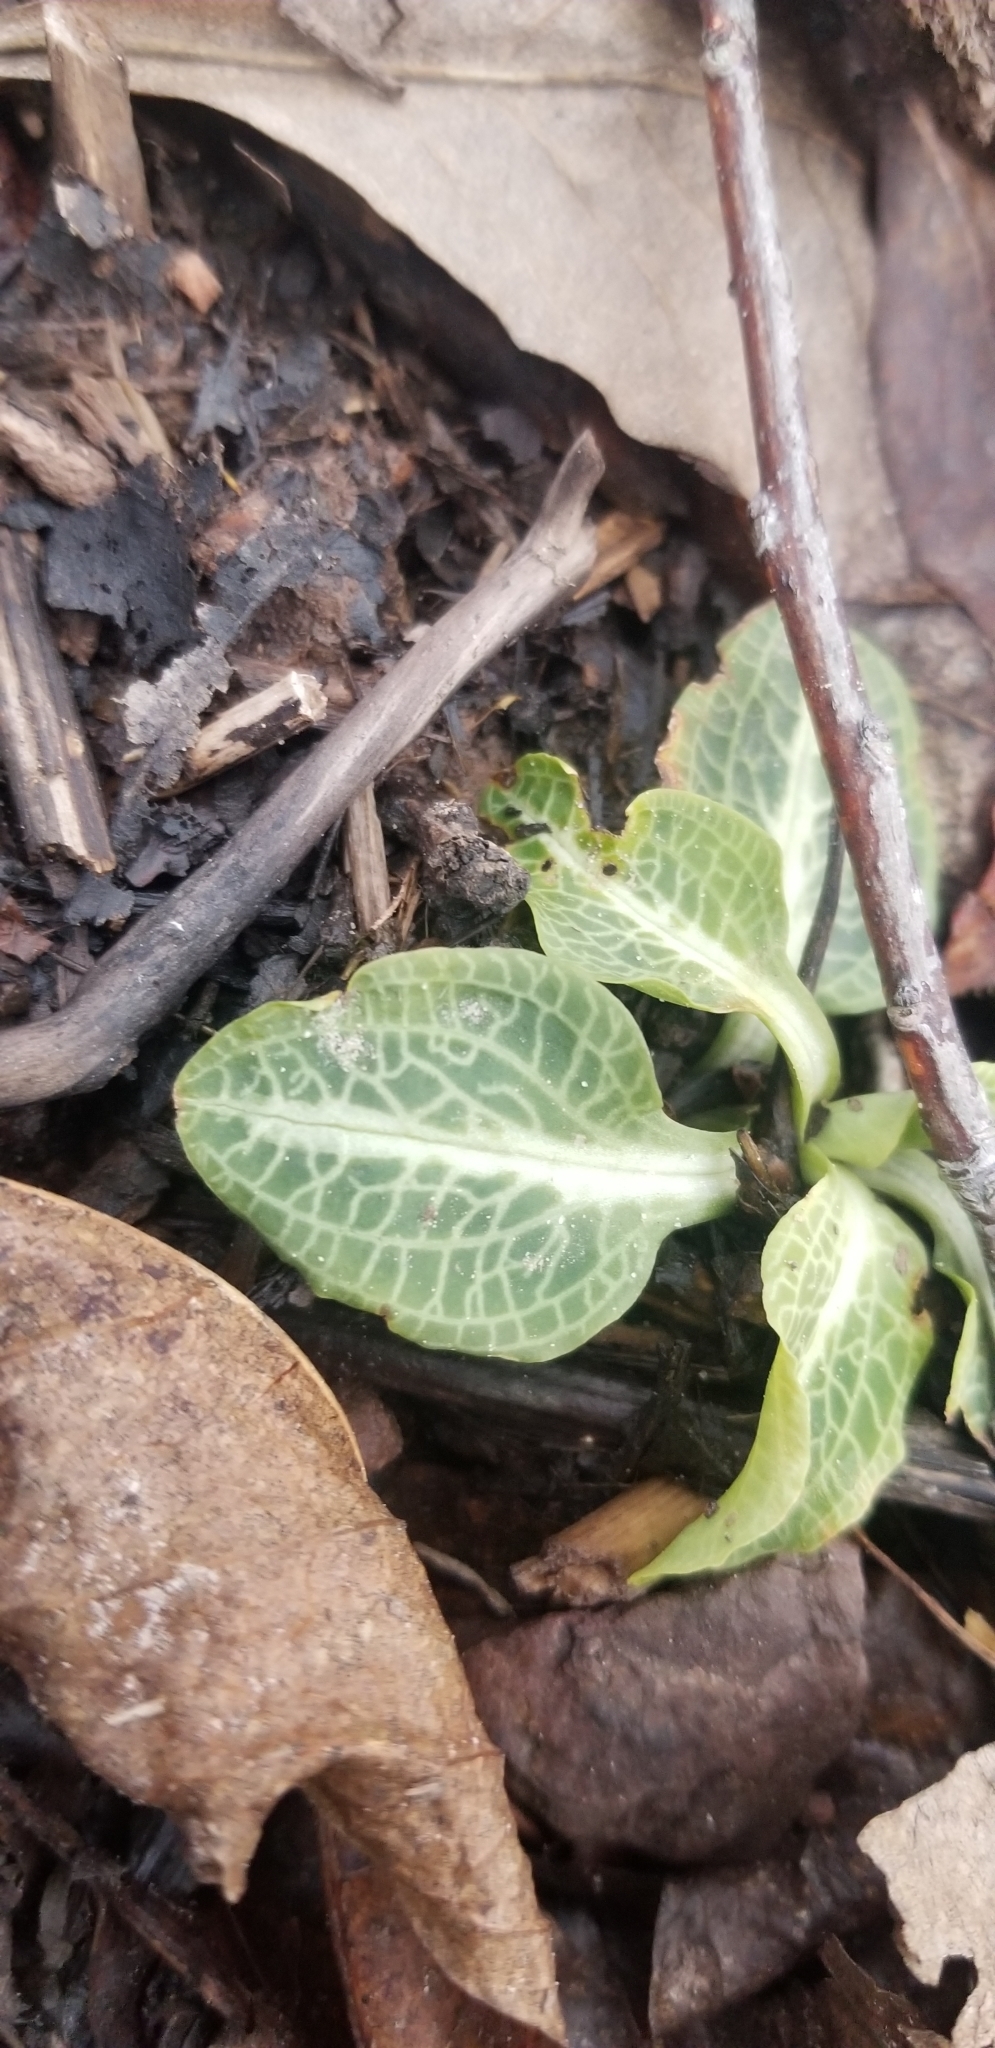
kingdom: Plantae
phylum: Tracheophyta
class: Liliopsida
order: Asparagales
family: Orchidaceae
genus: Goodyera
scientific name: Goodyera pubescens
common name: Downy rattlesnake-plantain
